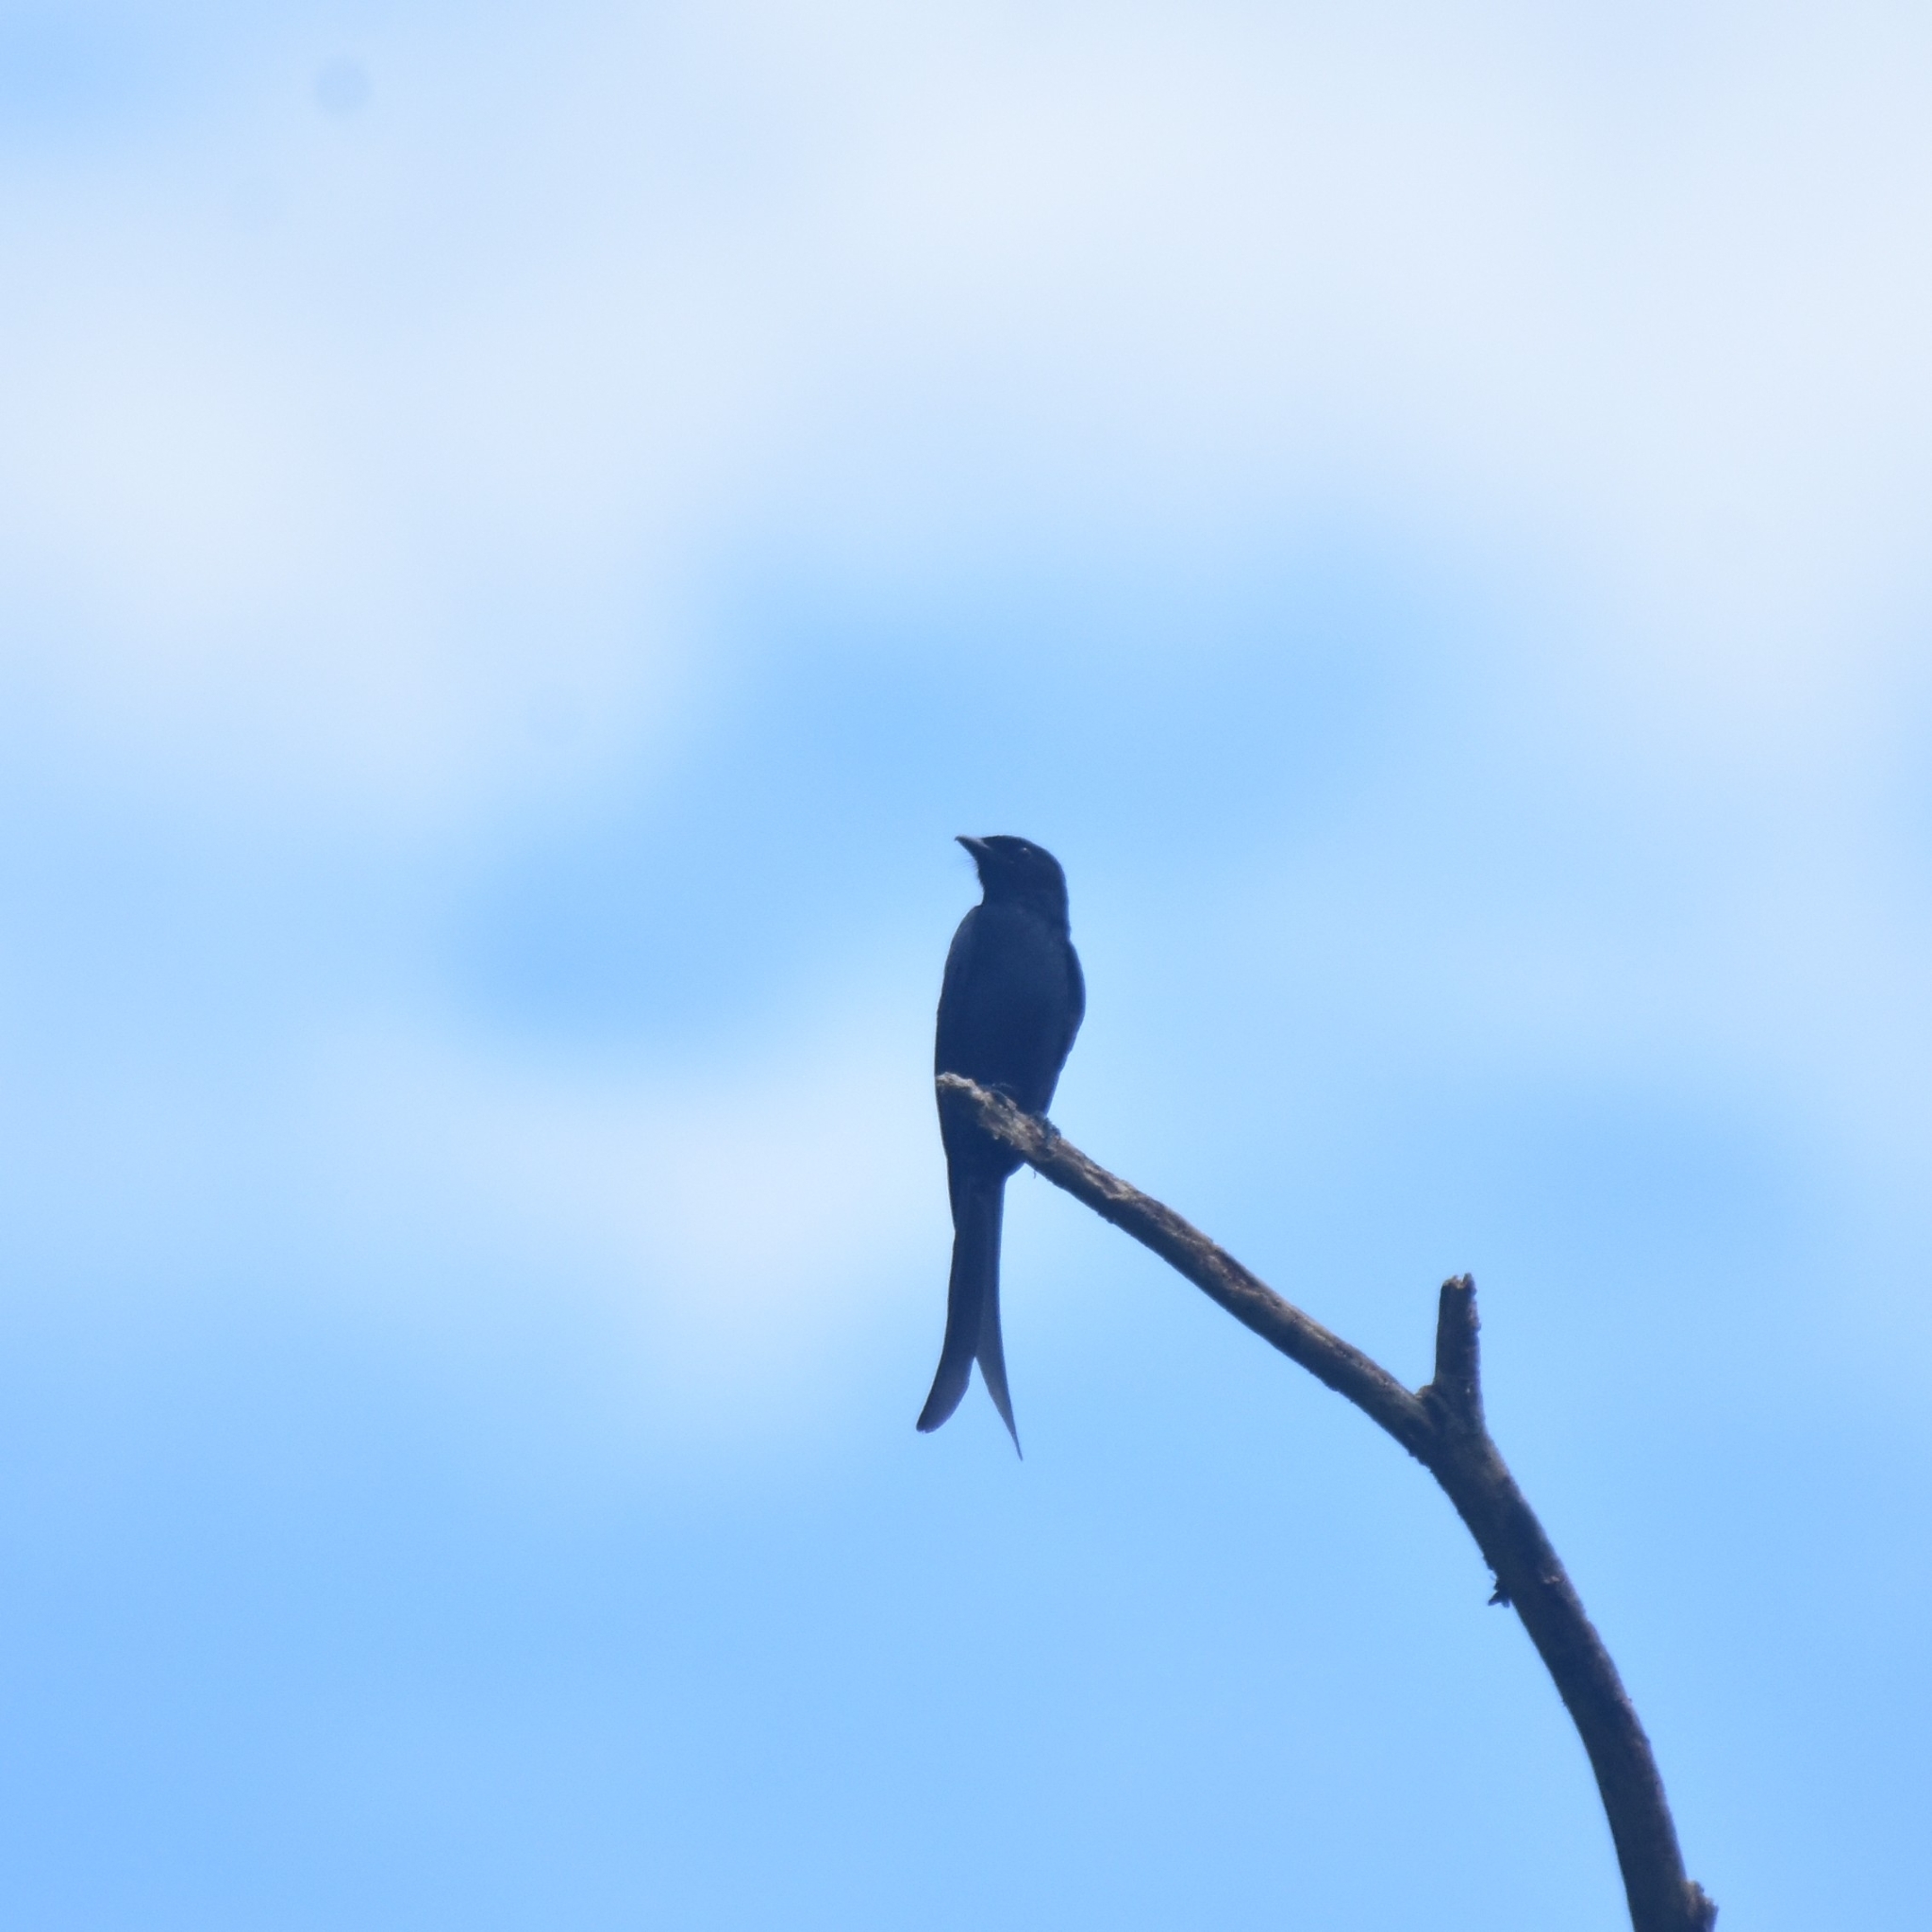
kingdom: Animalia
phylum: Chordata
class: Aves
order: Passeriformes
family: Dicruridae
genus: Dicrurus
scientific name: Dicrurus macrocercus
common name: Black drongo
